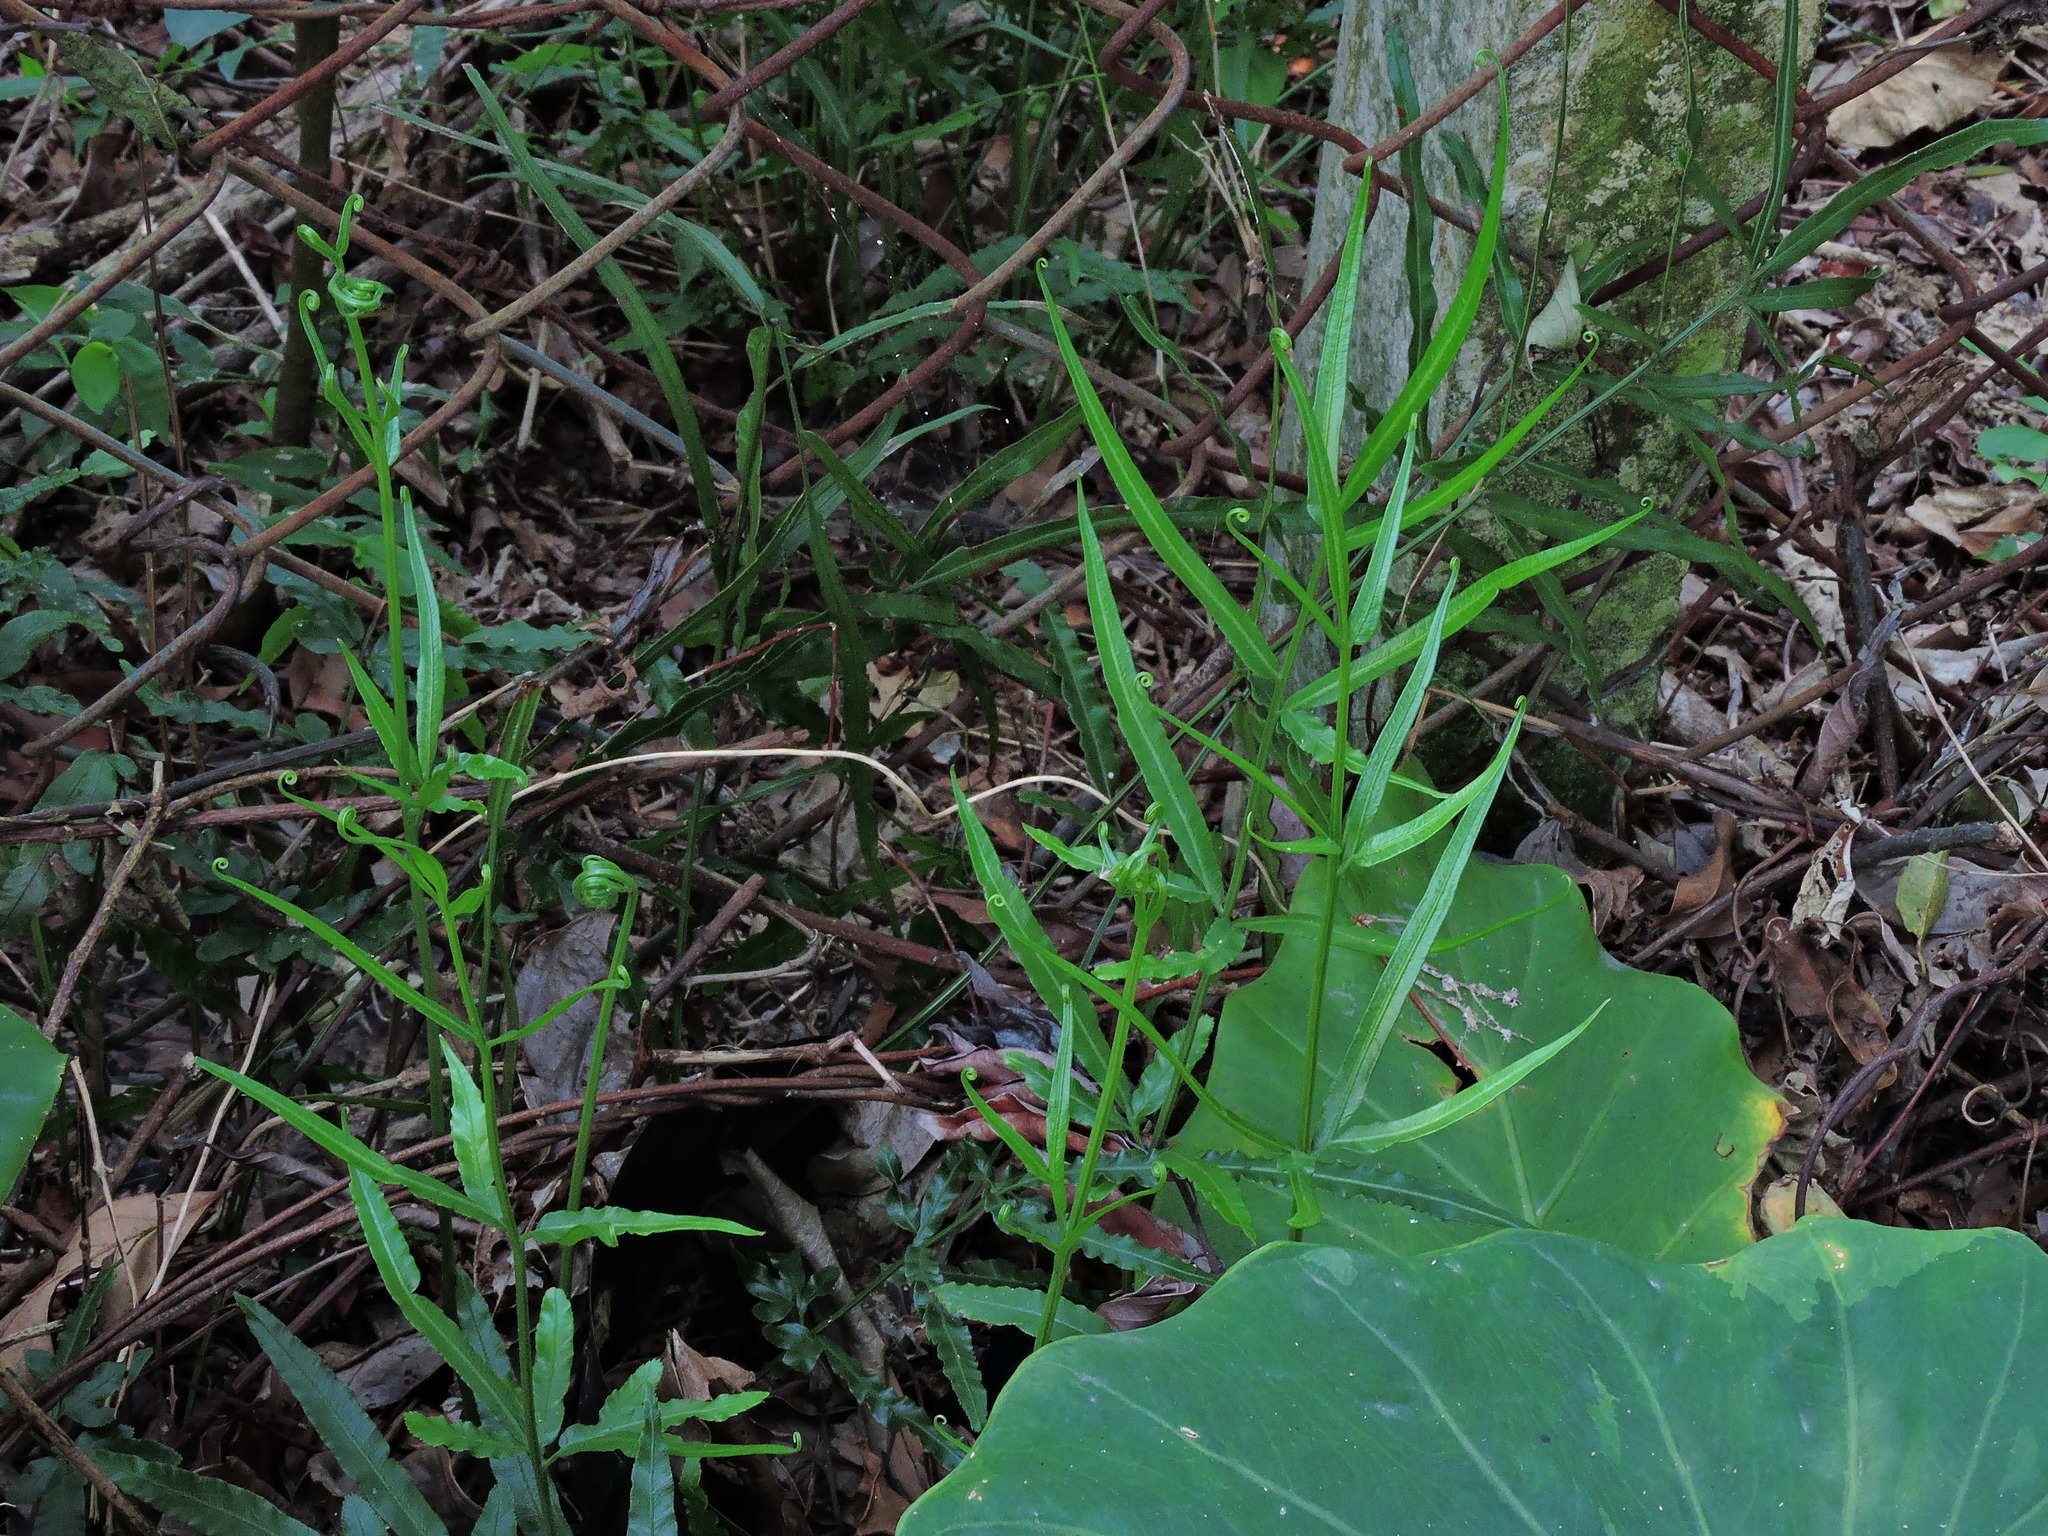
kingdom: Plantae
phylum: Tracheophyta
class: Polypodiopsida
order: Polypodiales
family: Pteridaceae
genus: Pteris
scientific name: Pteris ensiformis
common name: Sword brake
